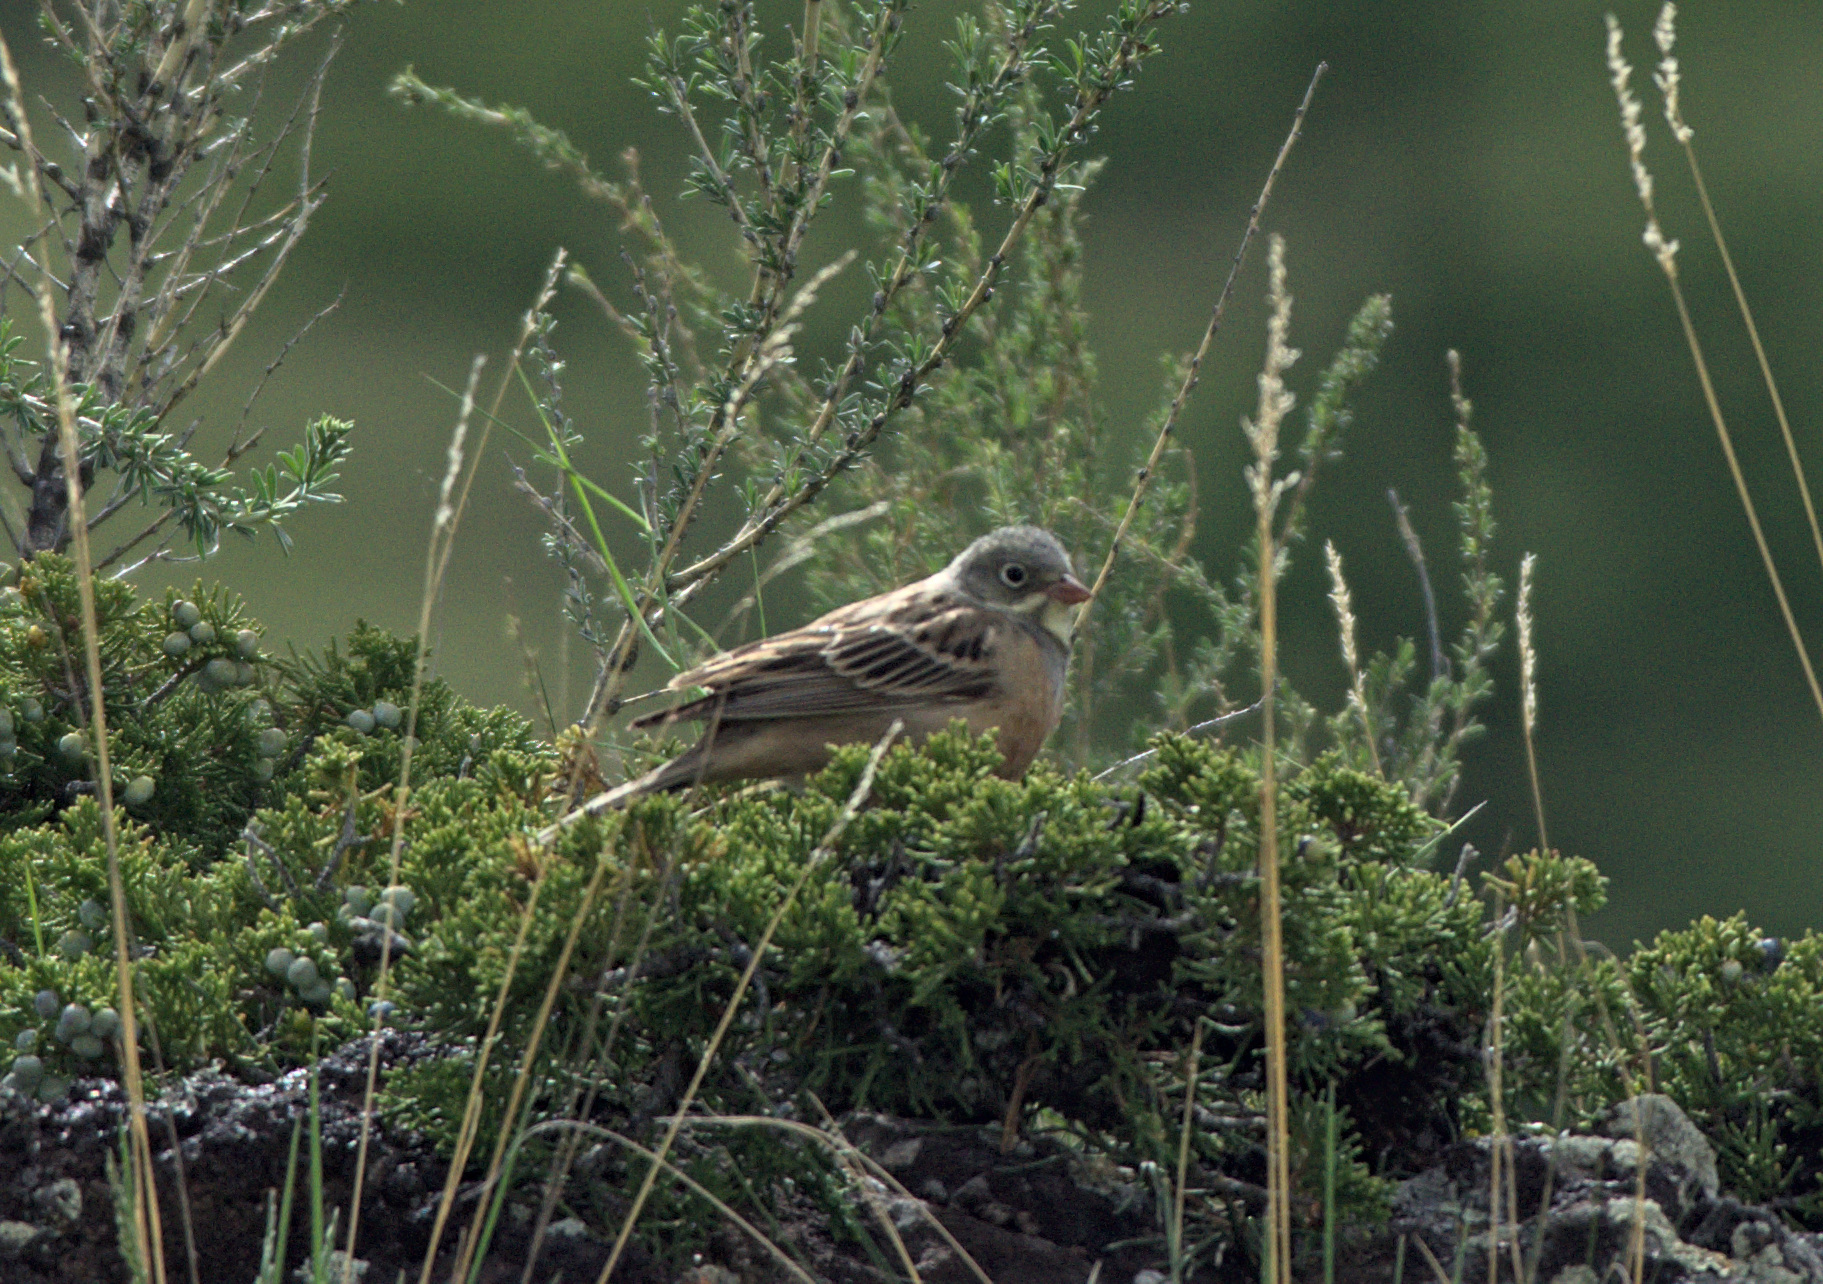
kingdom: Animalia
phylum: Chordata
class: Aves
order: Passeriformes
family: Emberizidae
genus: Emberiza
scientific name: Emberiza hortulana
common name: Ortolan bunting
